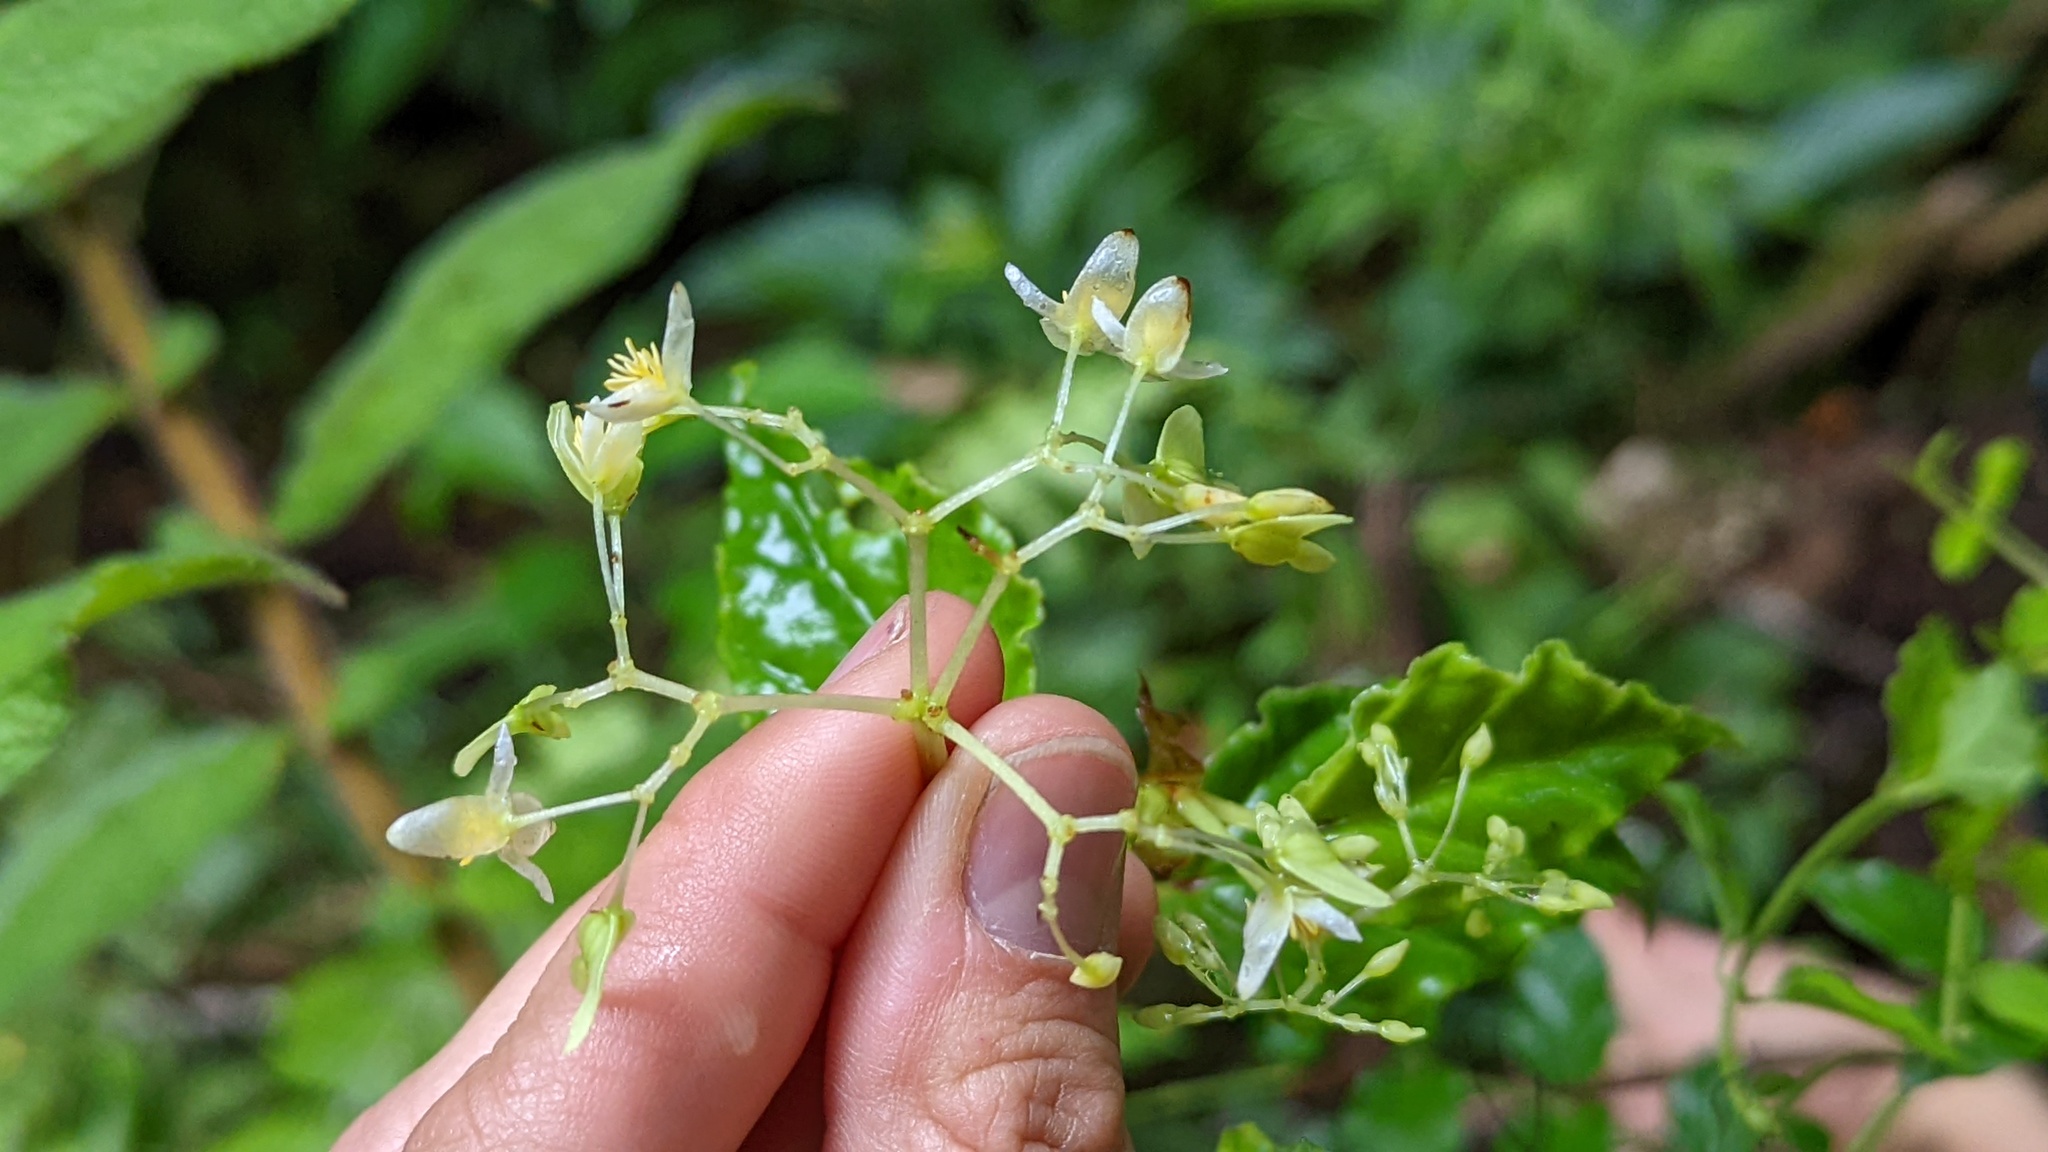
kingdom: Plantae
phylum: Tracheophyta
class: Magnoliopsida
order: Cucurbitales
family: Begoniaceae
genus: Begonia
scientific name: Begonia glabra
